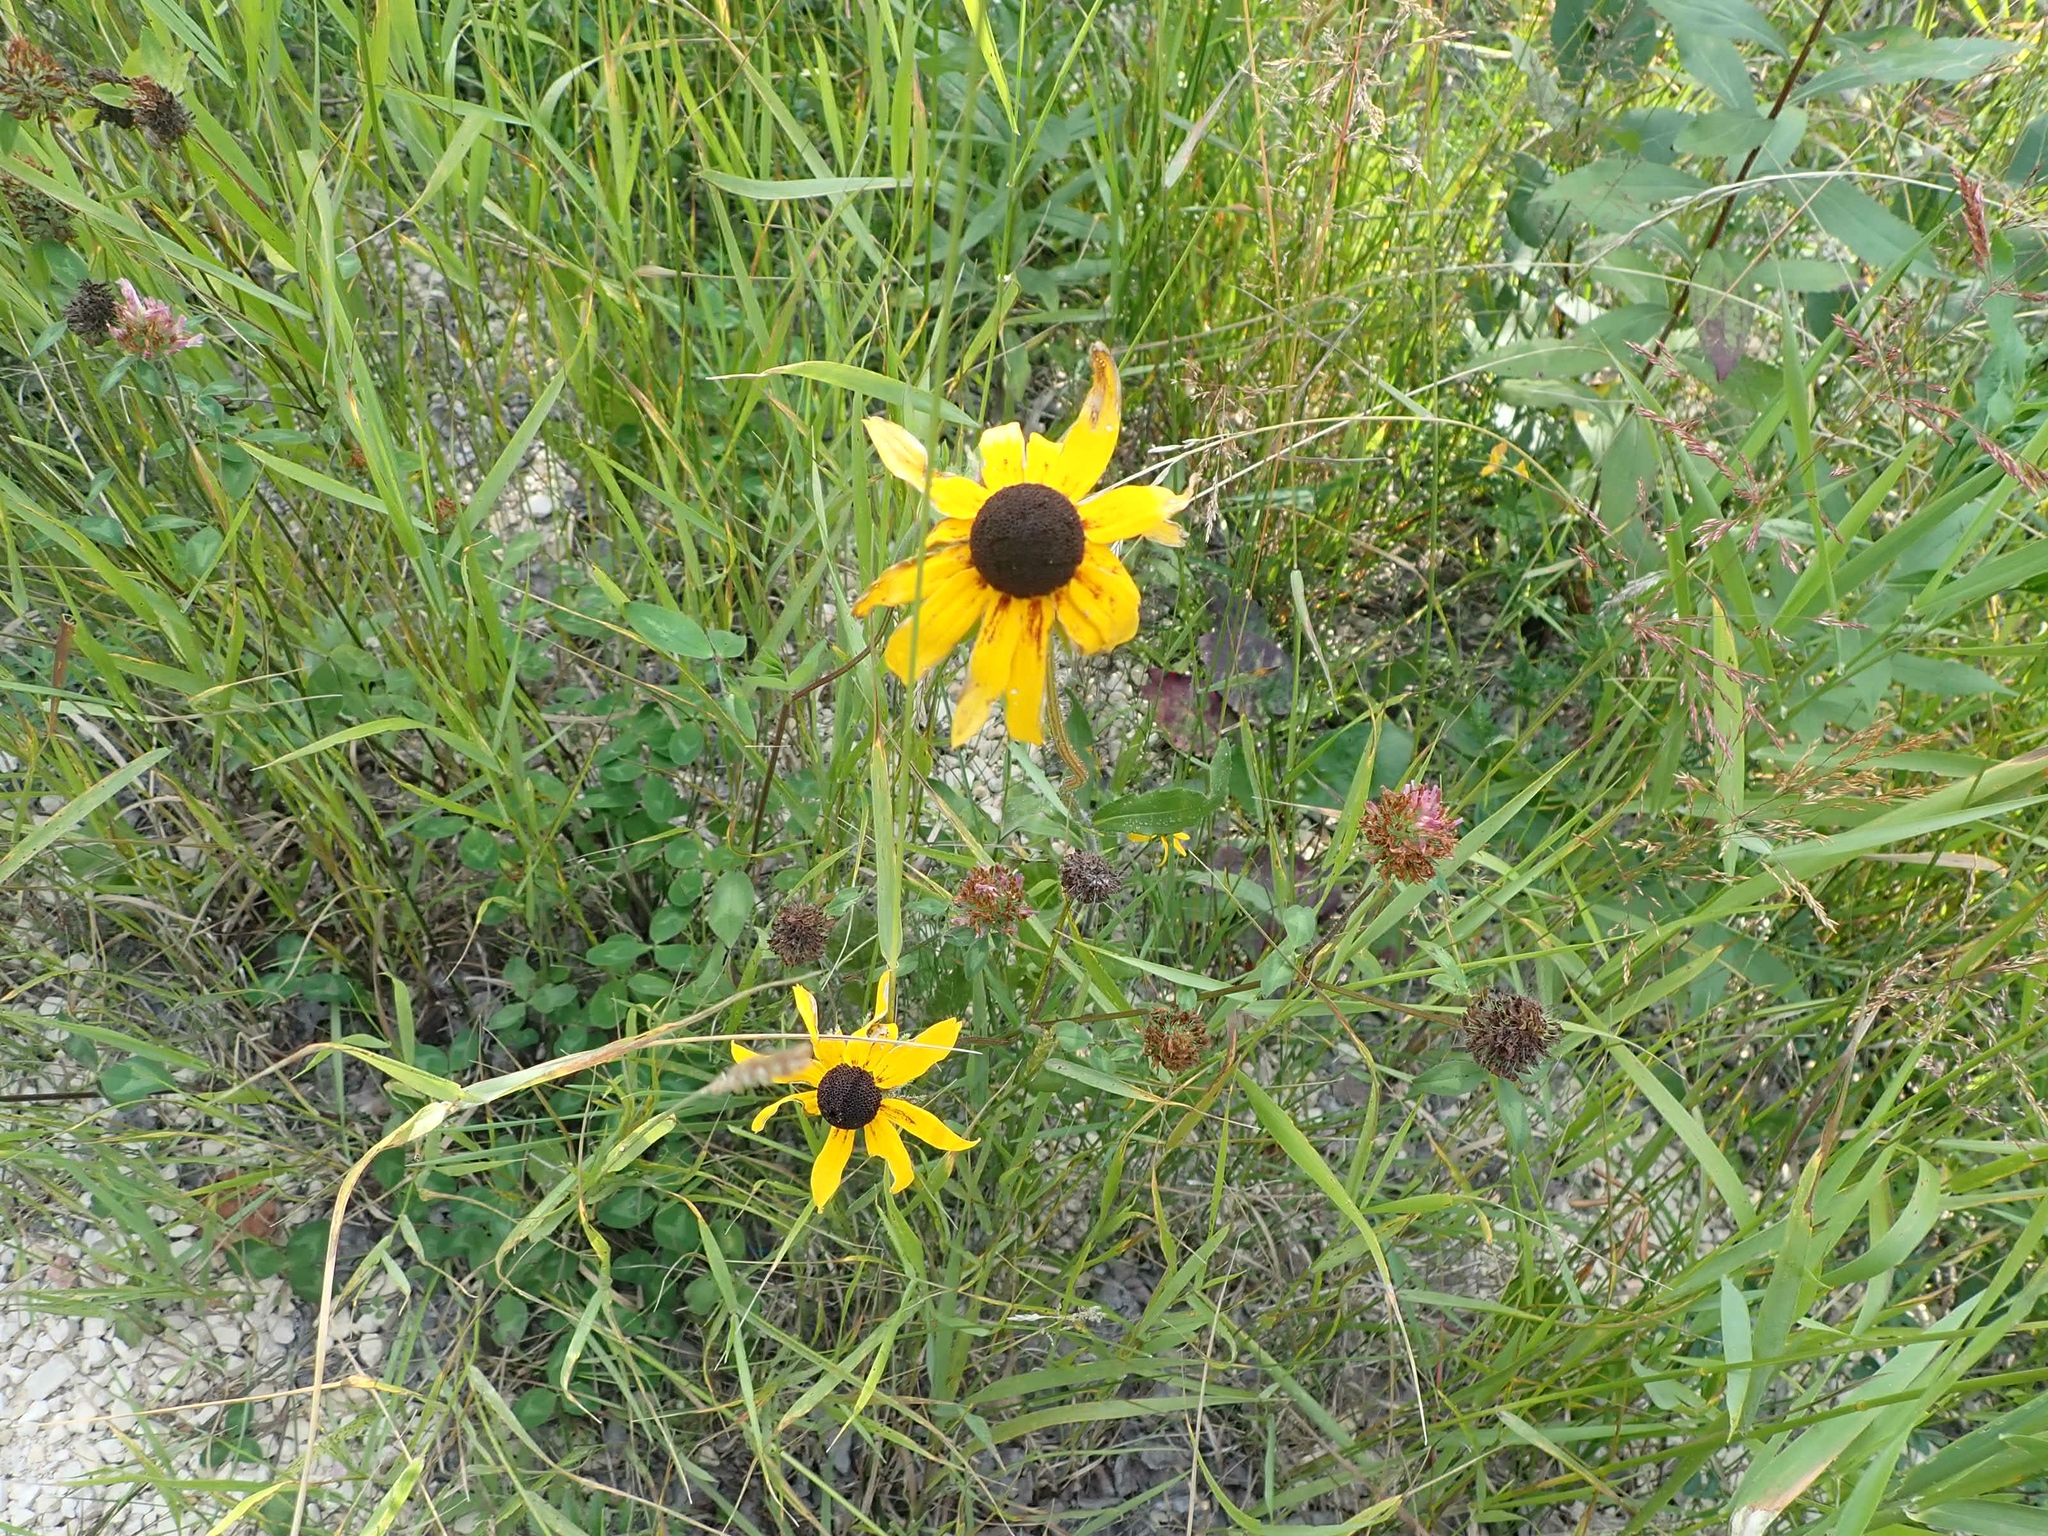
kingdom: Plantae
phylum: Tracheophyta
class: Magnoliopsida
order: Asterales
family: Asteraceae
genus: Rudbeckia
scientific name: Rudbeckia hirta
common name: Black-eyed-susan
